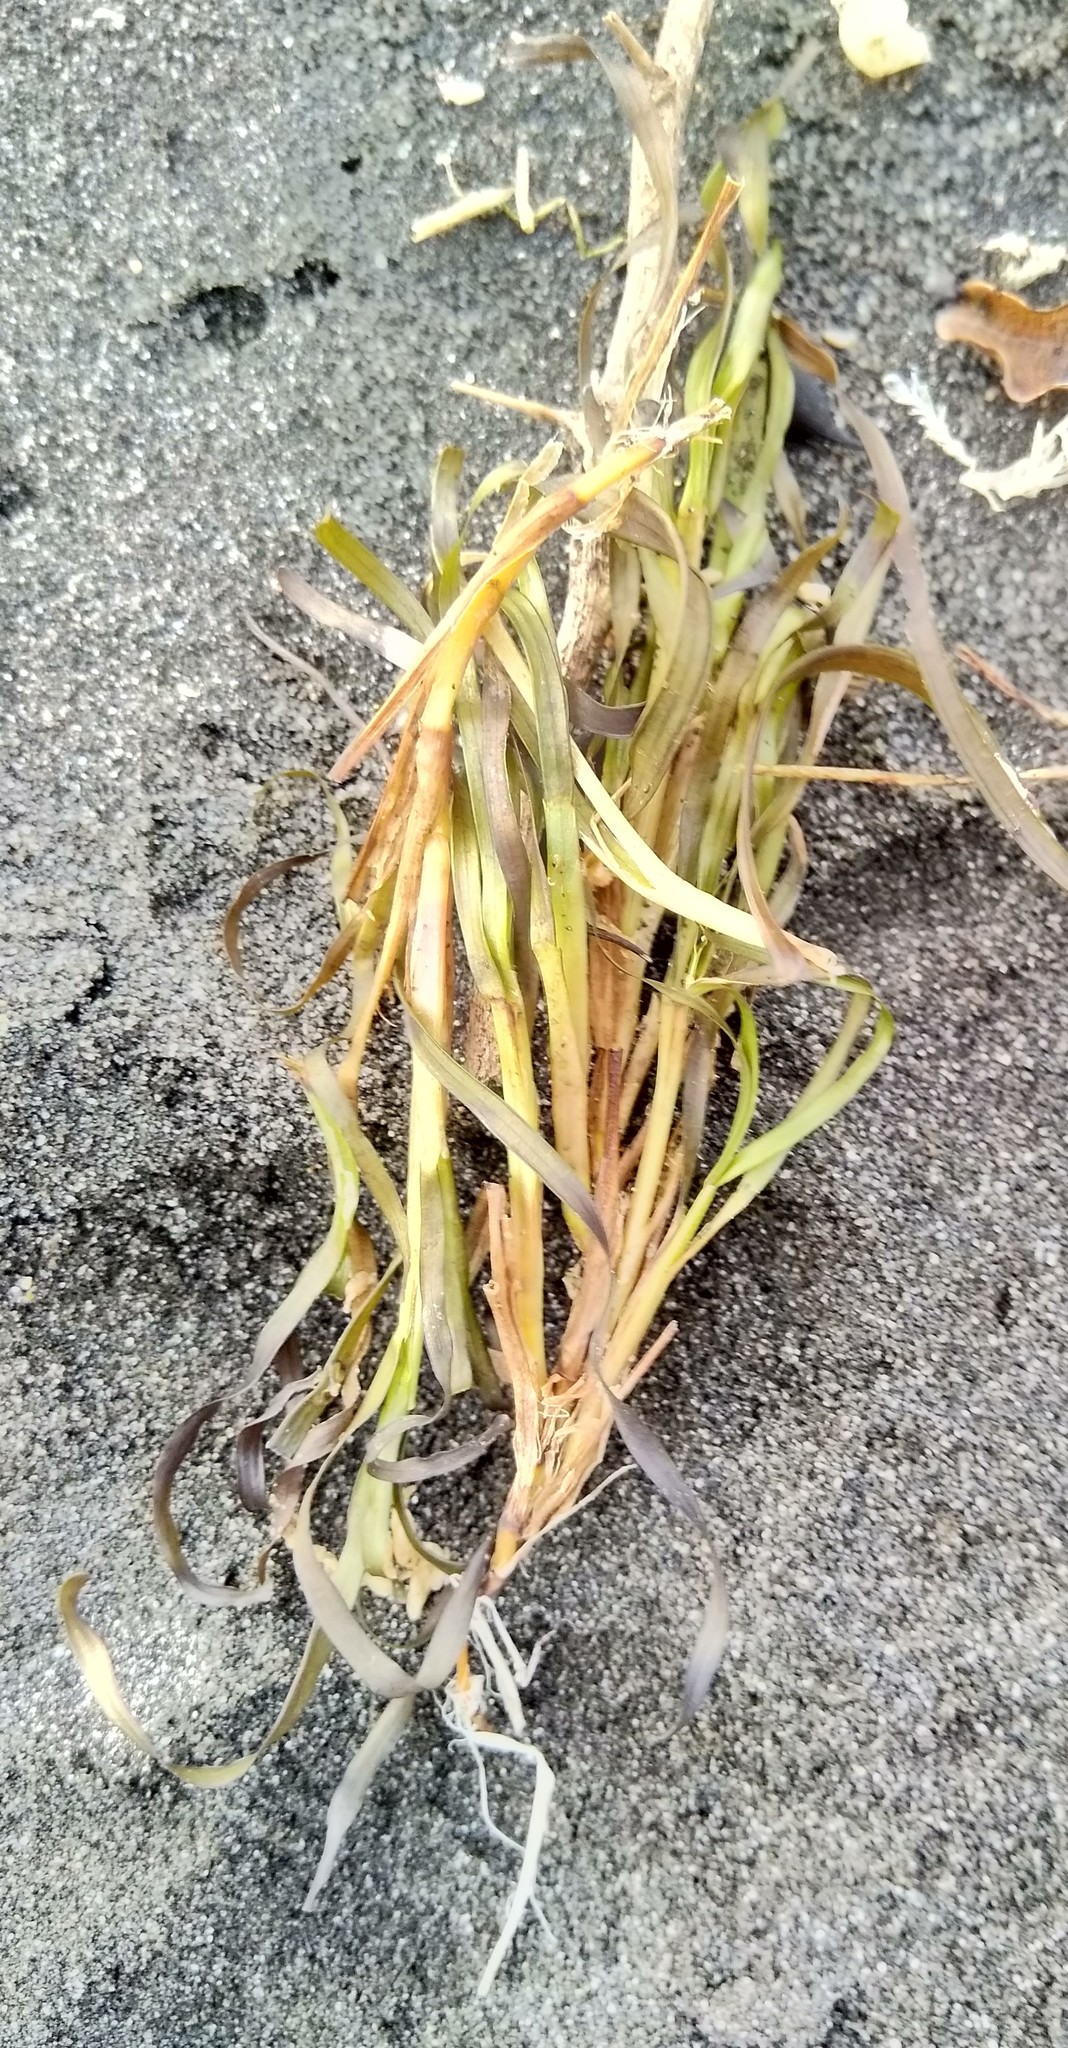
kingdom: Plantae
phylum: Tracheophyta
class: Liliopsida
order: Alismatales
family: Zosteraceae
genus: Zostera
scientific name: Zostera muelleri
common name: Species code: zc
